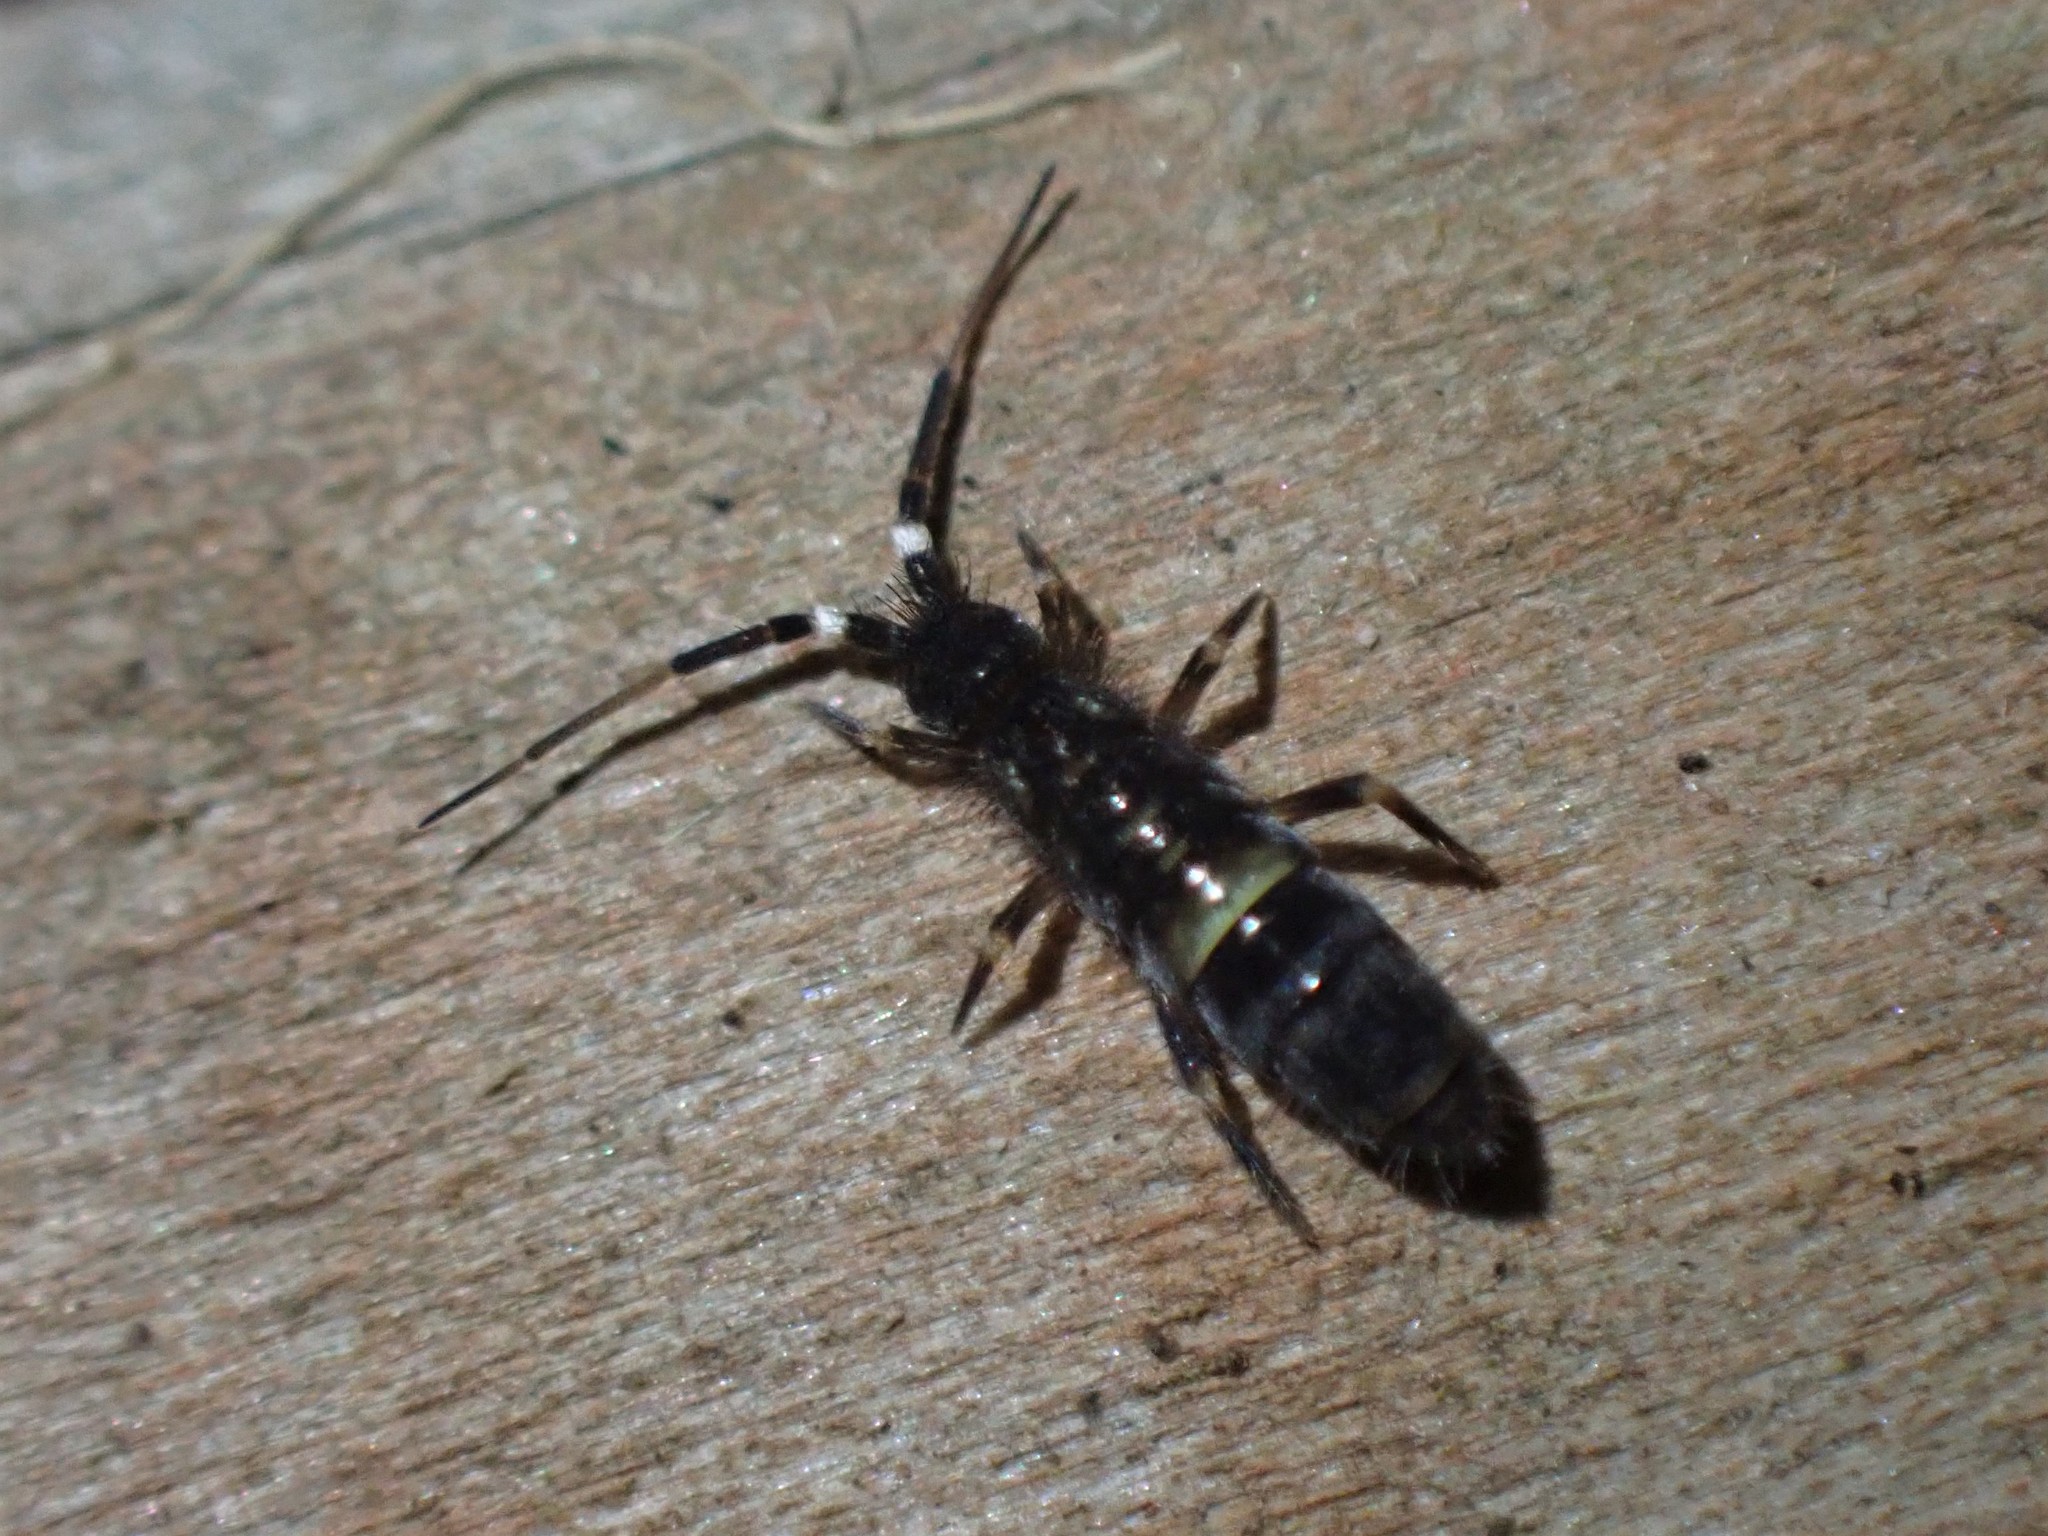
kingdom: Animalia
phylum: Arthropoda
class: Collembola
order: Entomobryomorpha
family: Orchesellidae
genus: Orchesella
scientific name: Orchesella cincta
